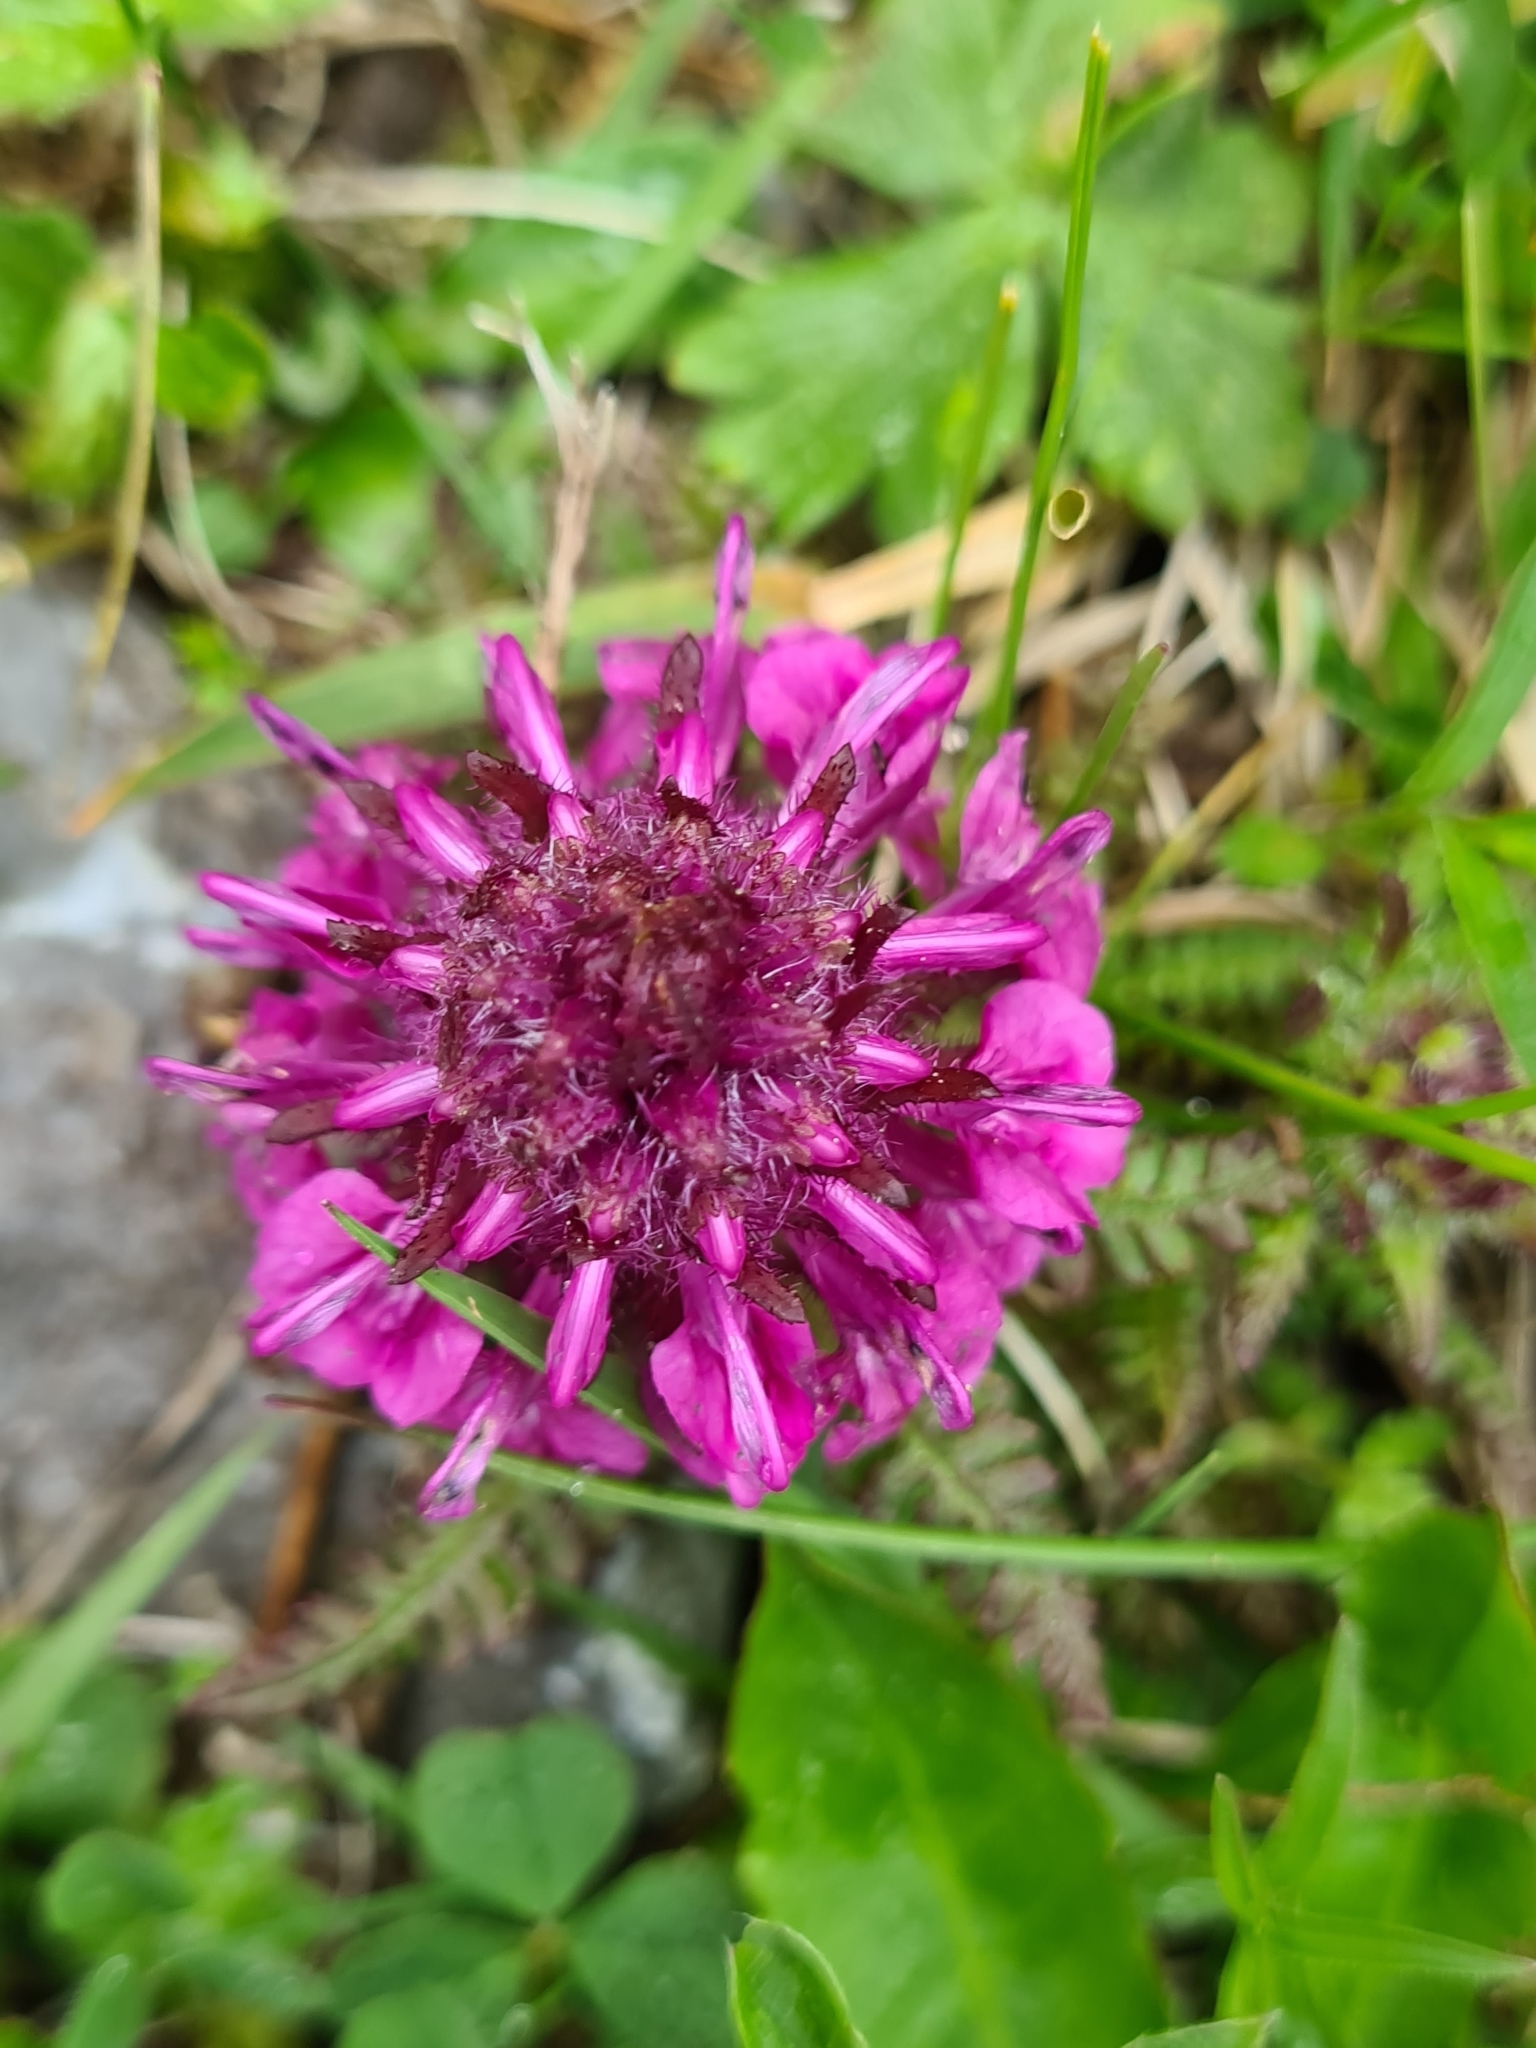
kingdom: Plantae
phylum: Tracheophyta
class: Magnoliopsida
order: Lamiales
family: Orobanchaceae
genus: Pedicularis
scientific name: Pedicularis verticillata
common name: Whorled lousewort
